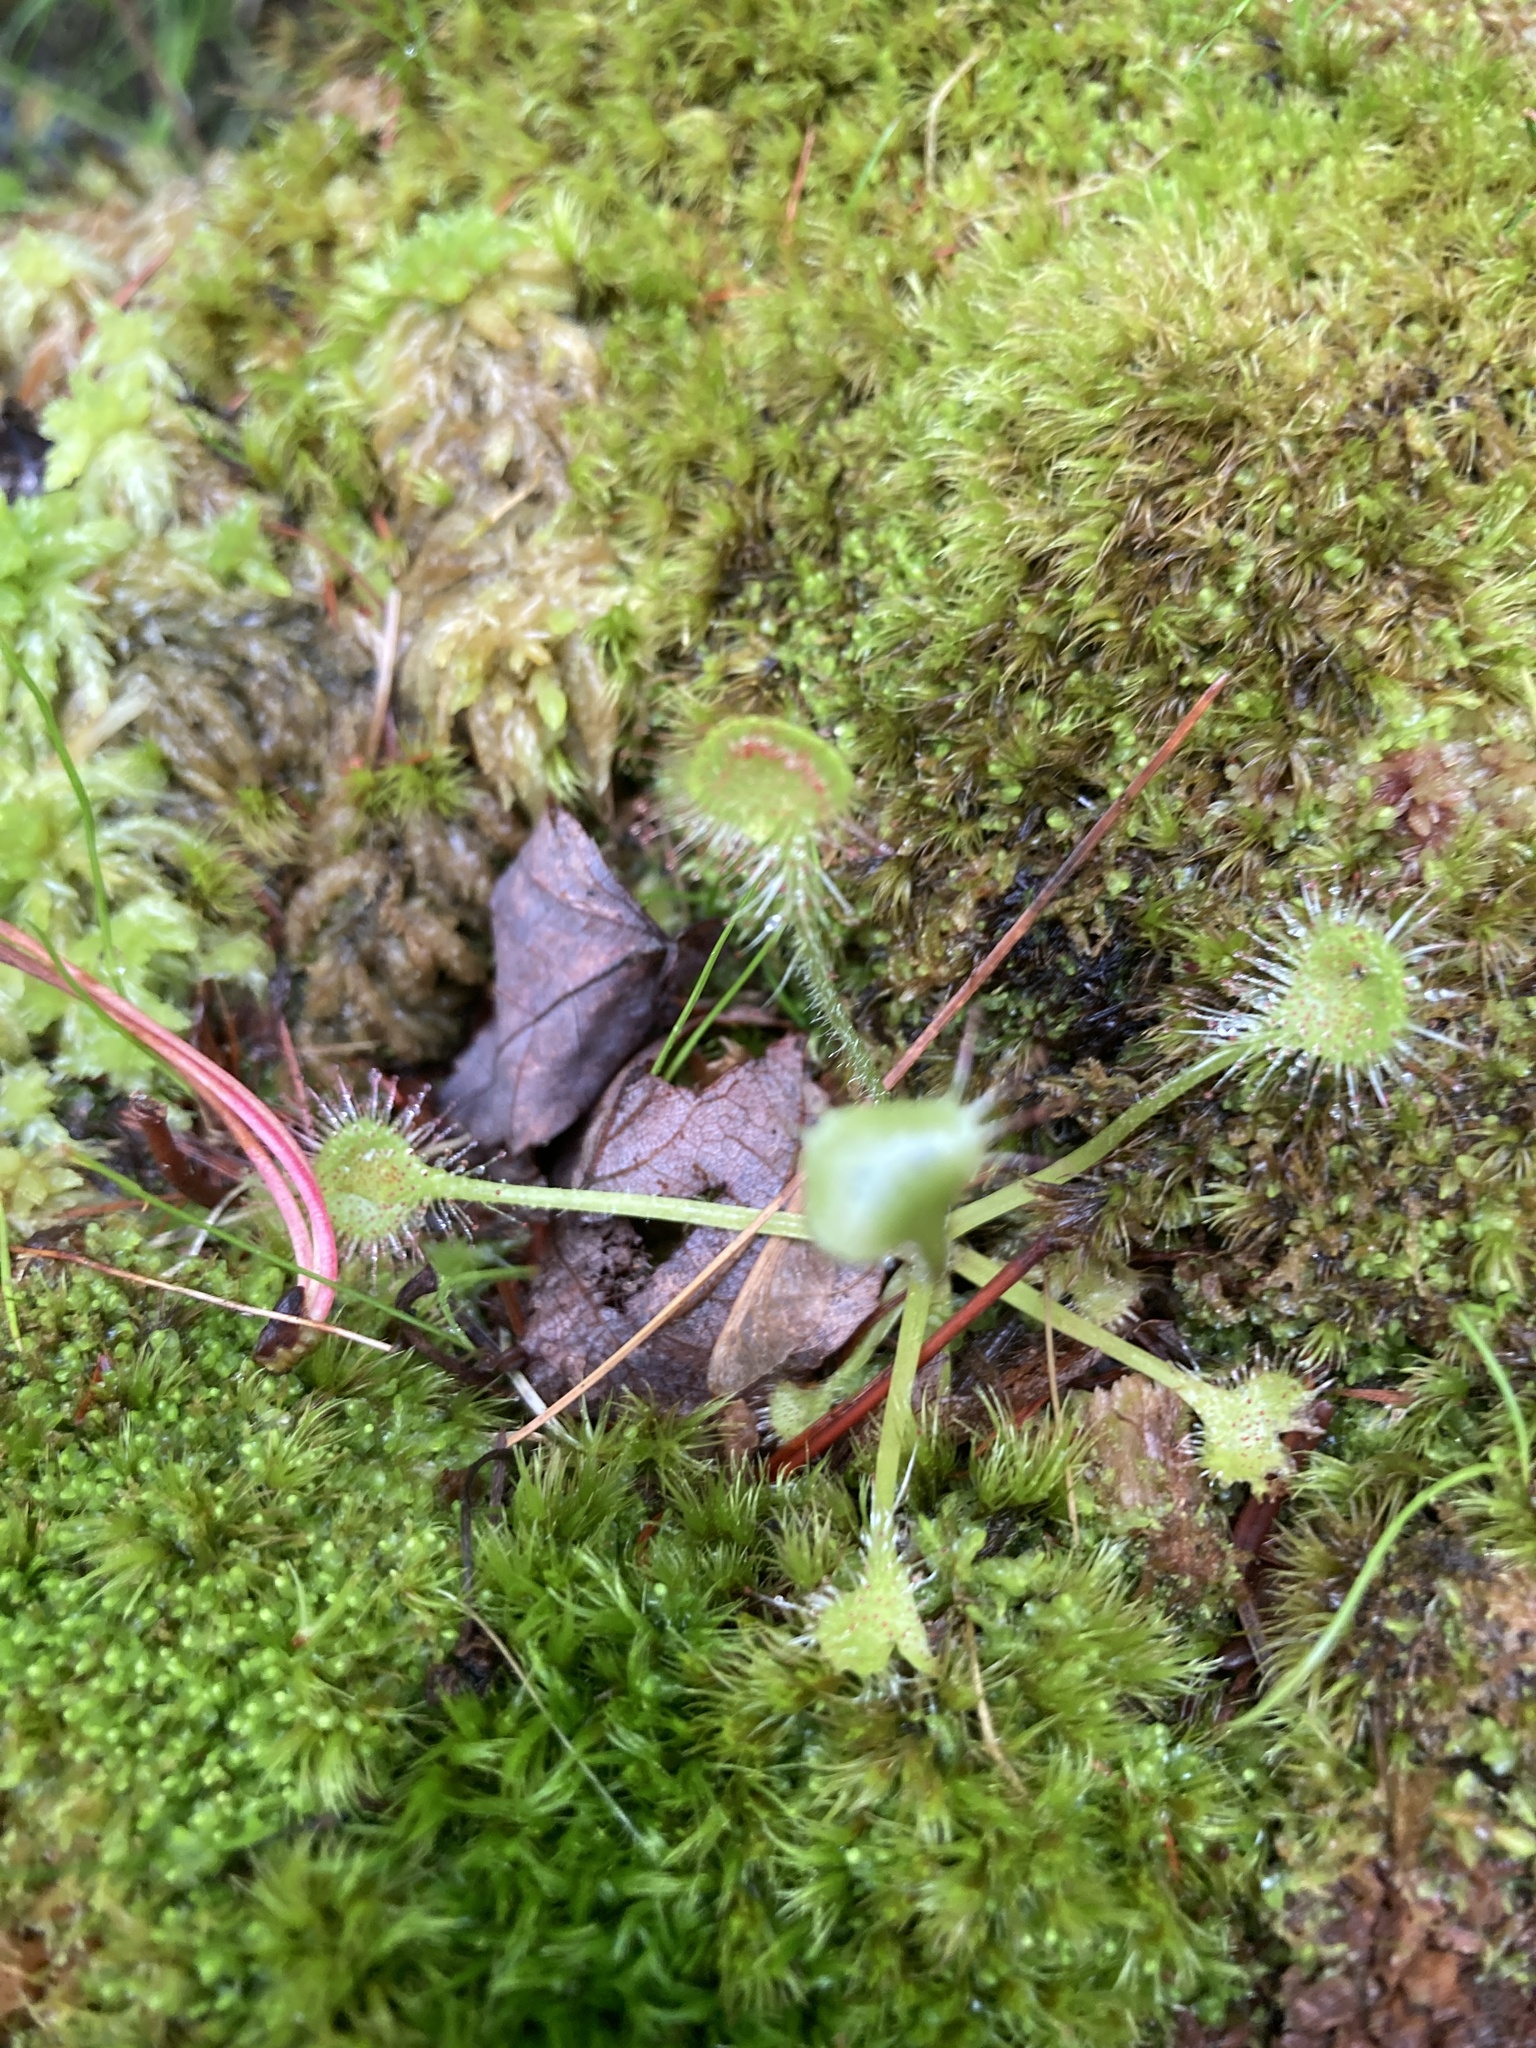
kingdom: Plantae
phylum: Tracheophyta
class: Magnoliopsida
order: Caryophyllales
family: Droseraceae
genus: Drosera
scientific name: Drosera rotundifolia
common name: Round-leaved sundew
